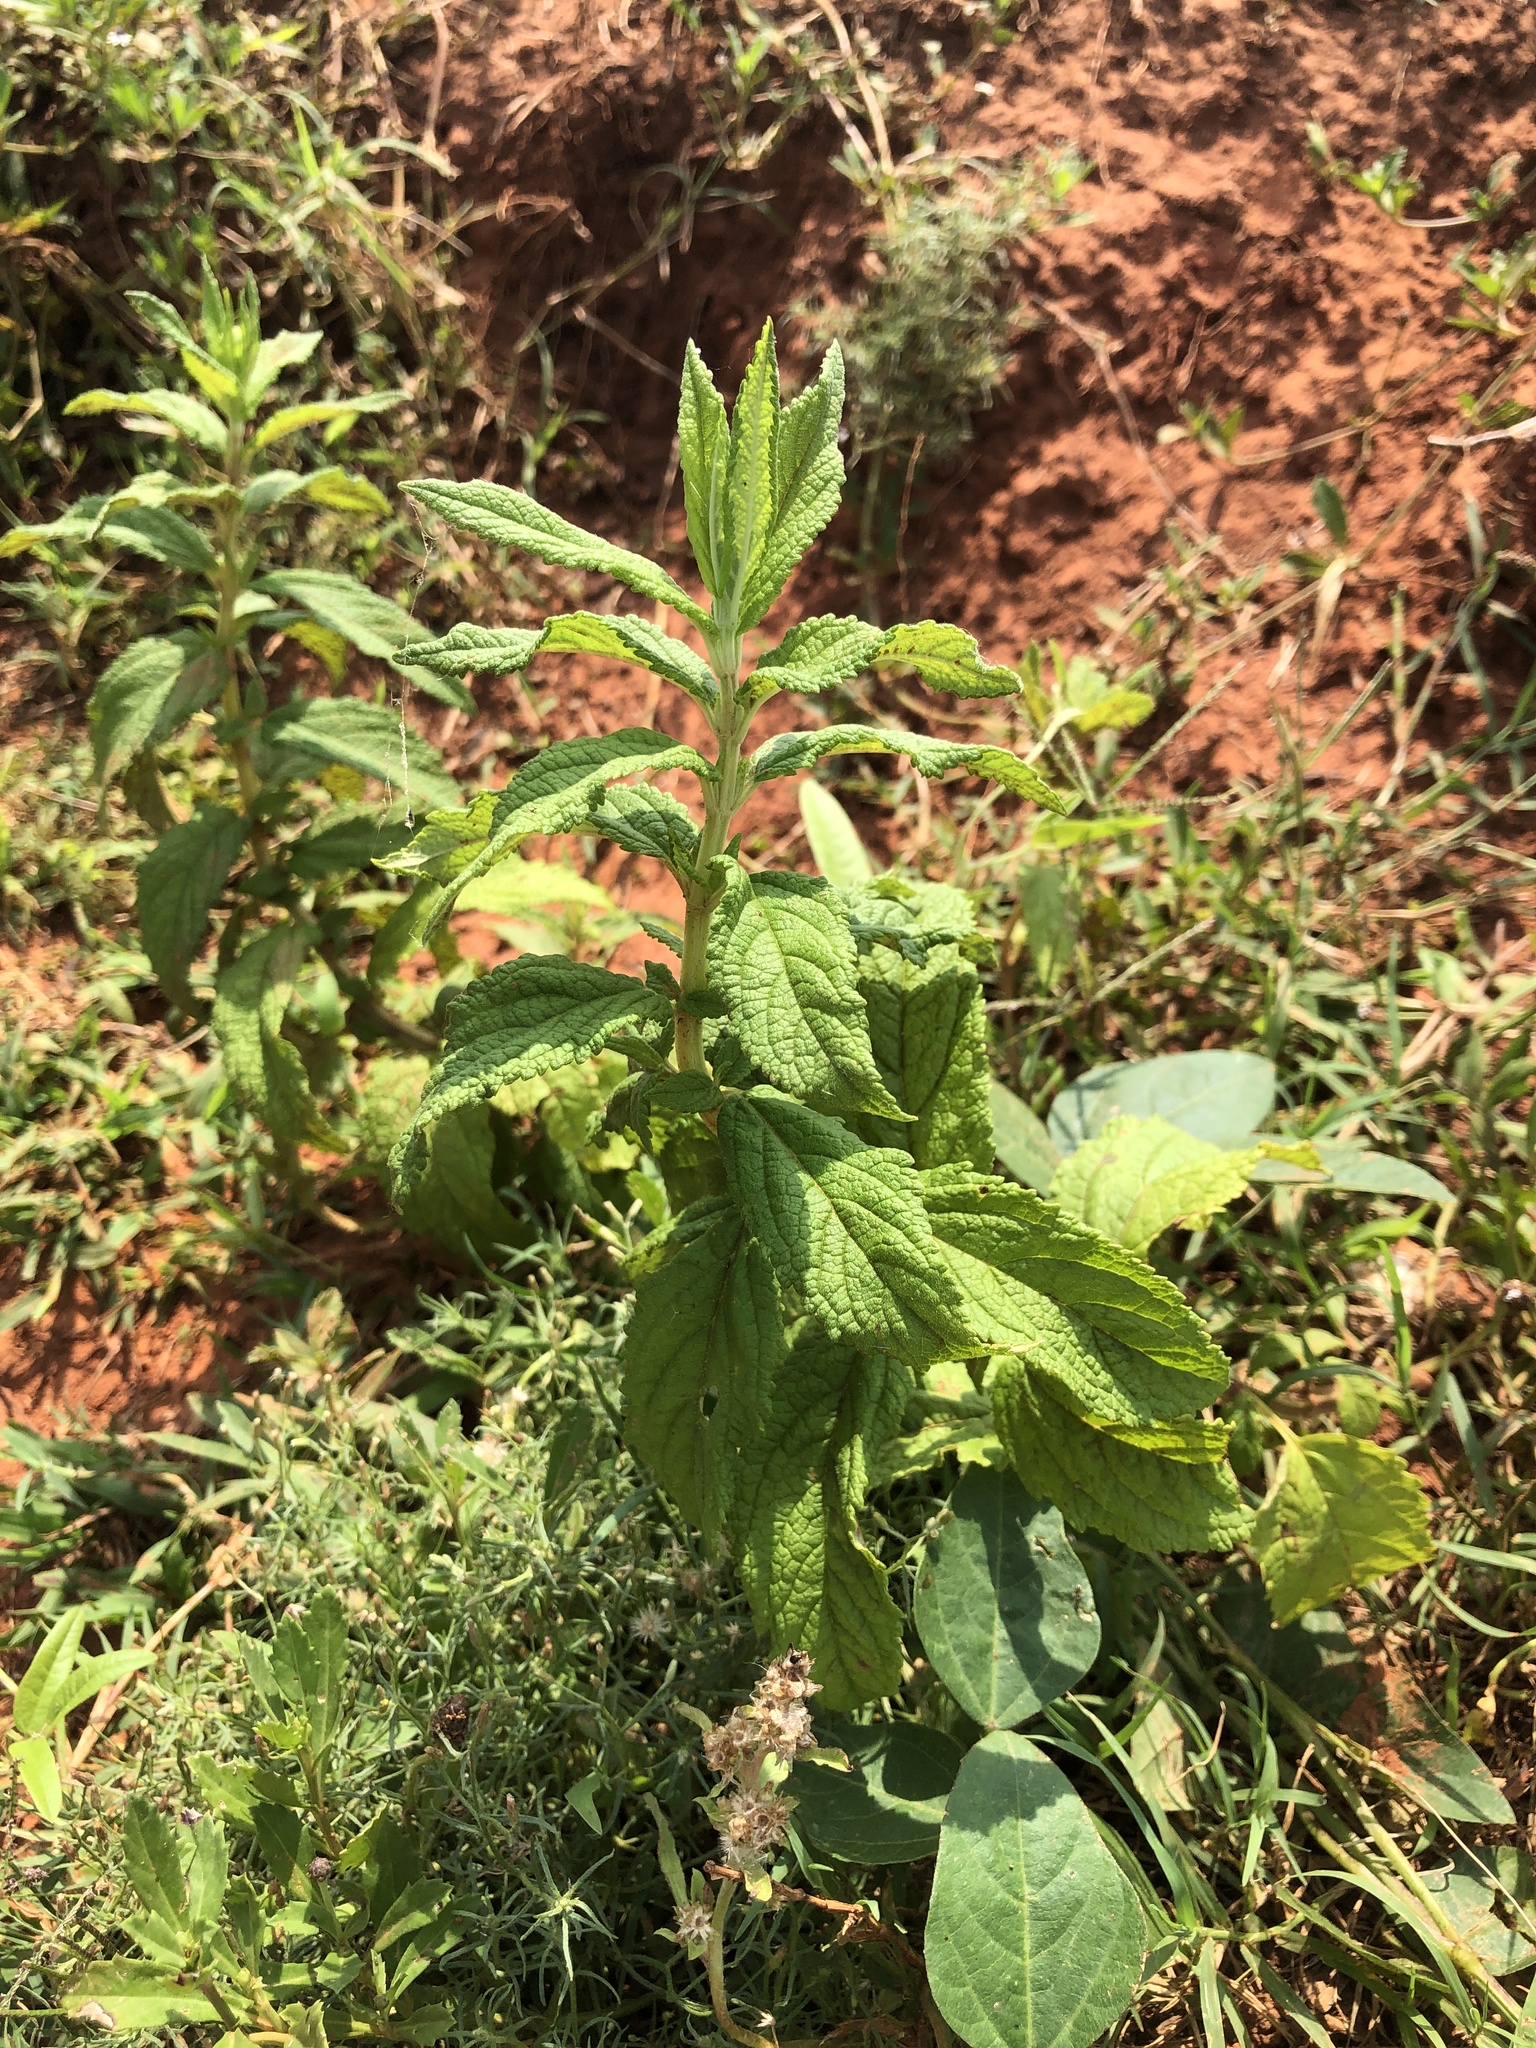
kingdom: Plantae
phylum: Tracheophyta
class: Magnoliopsida
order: Lamiales
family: Lamiaceae
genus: Teucrium
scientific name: Teucrium canadense
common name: American germander
